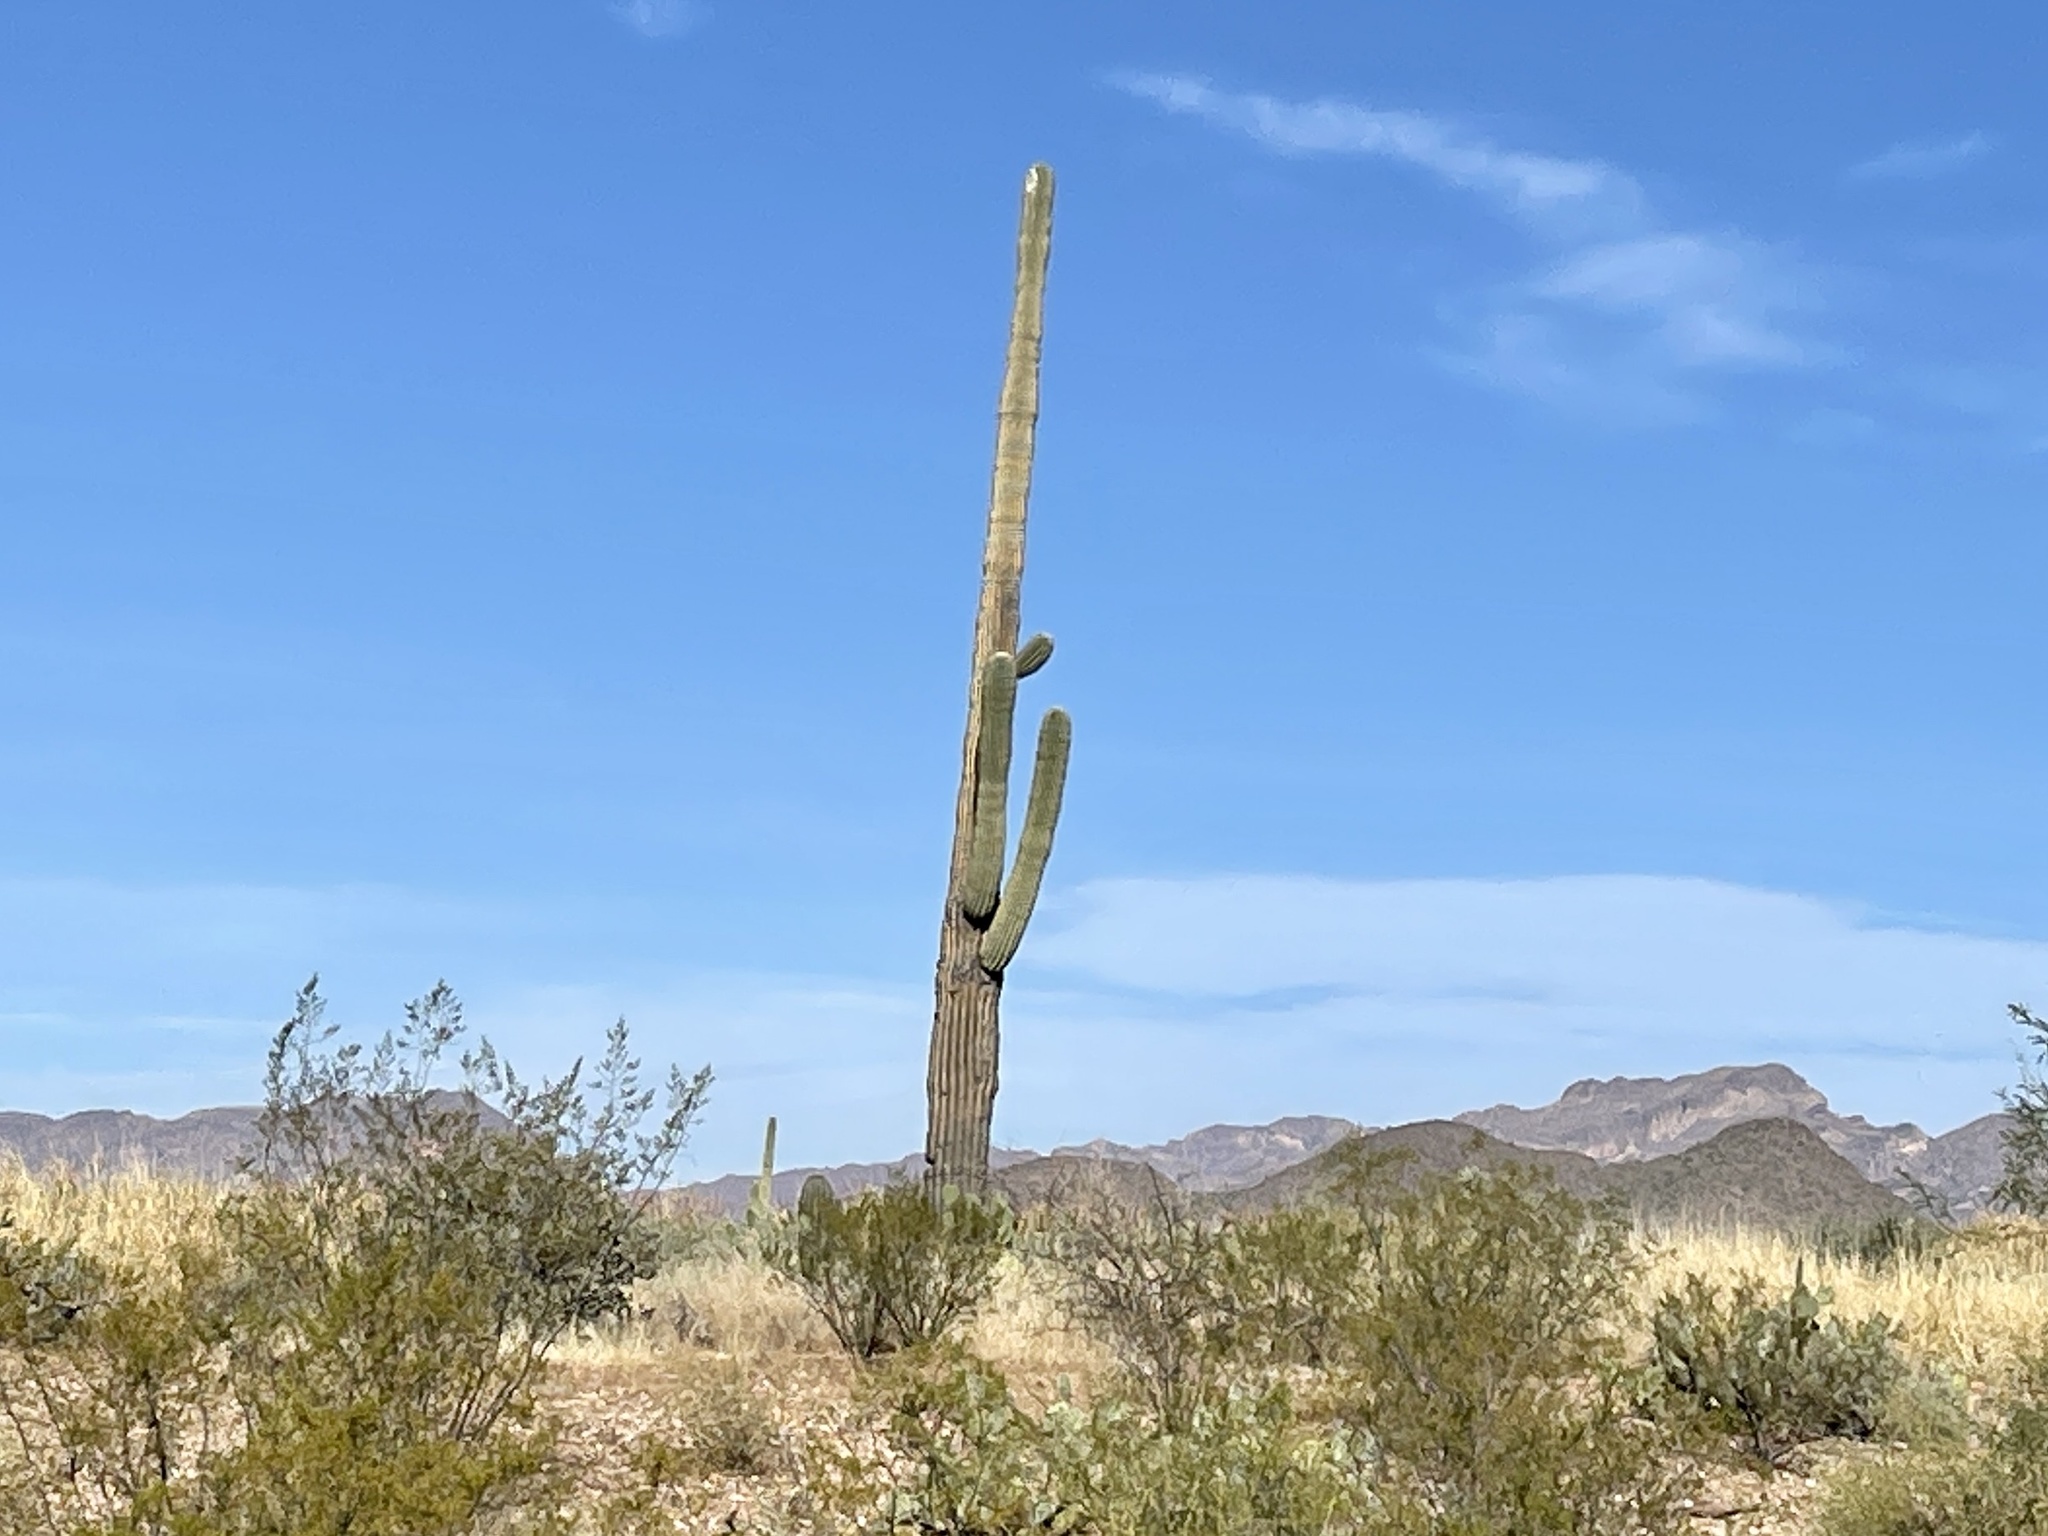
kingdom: Plantae
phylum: Tracheophyta
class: Magnoliopsida
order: Caryophyllales
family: Cactaceae
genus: Carnegiea
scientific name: Carnegiea gigantea
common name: Saguaro
